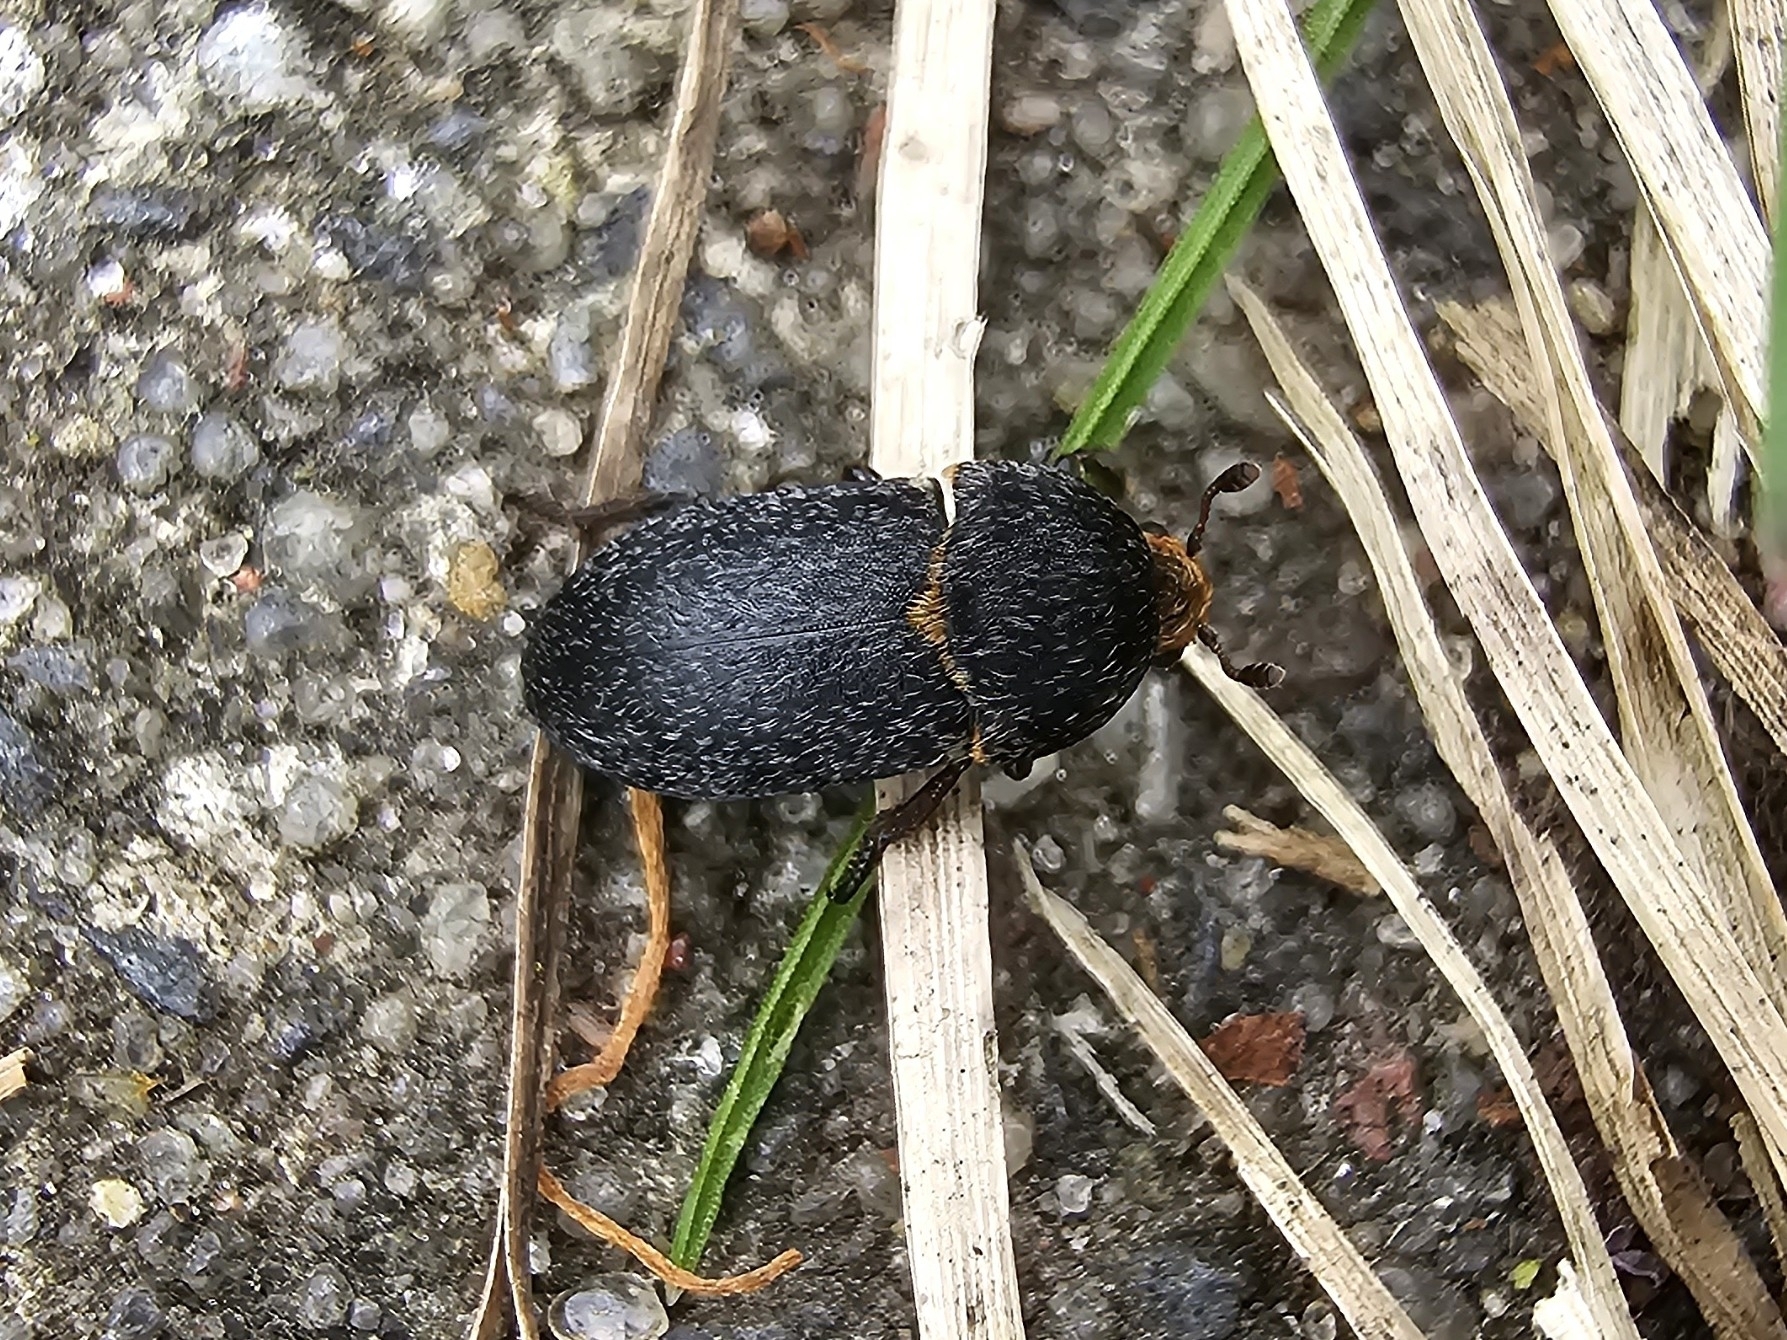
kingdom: Animalia
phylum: Arthropoda
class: Insecta
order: Coleoptera
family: Dermestidae
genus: Dermestes
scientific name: Dermestes laniarius
